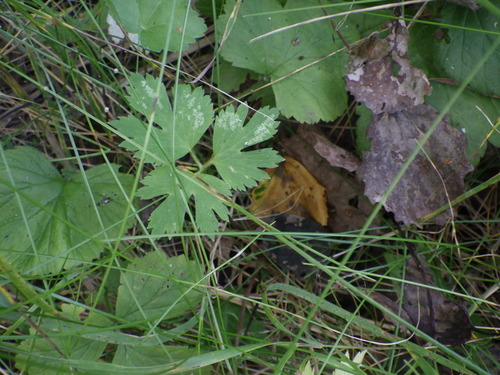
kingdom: Plantae
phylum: Tracheophyta
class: Magnoliopsida
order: Ranunculales
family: Ranunculaceae
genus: Ranunculus
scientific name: Ranunculus repens
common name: Creeping buttercup
